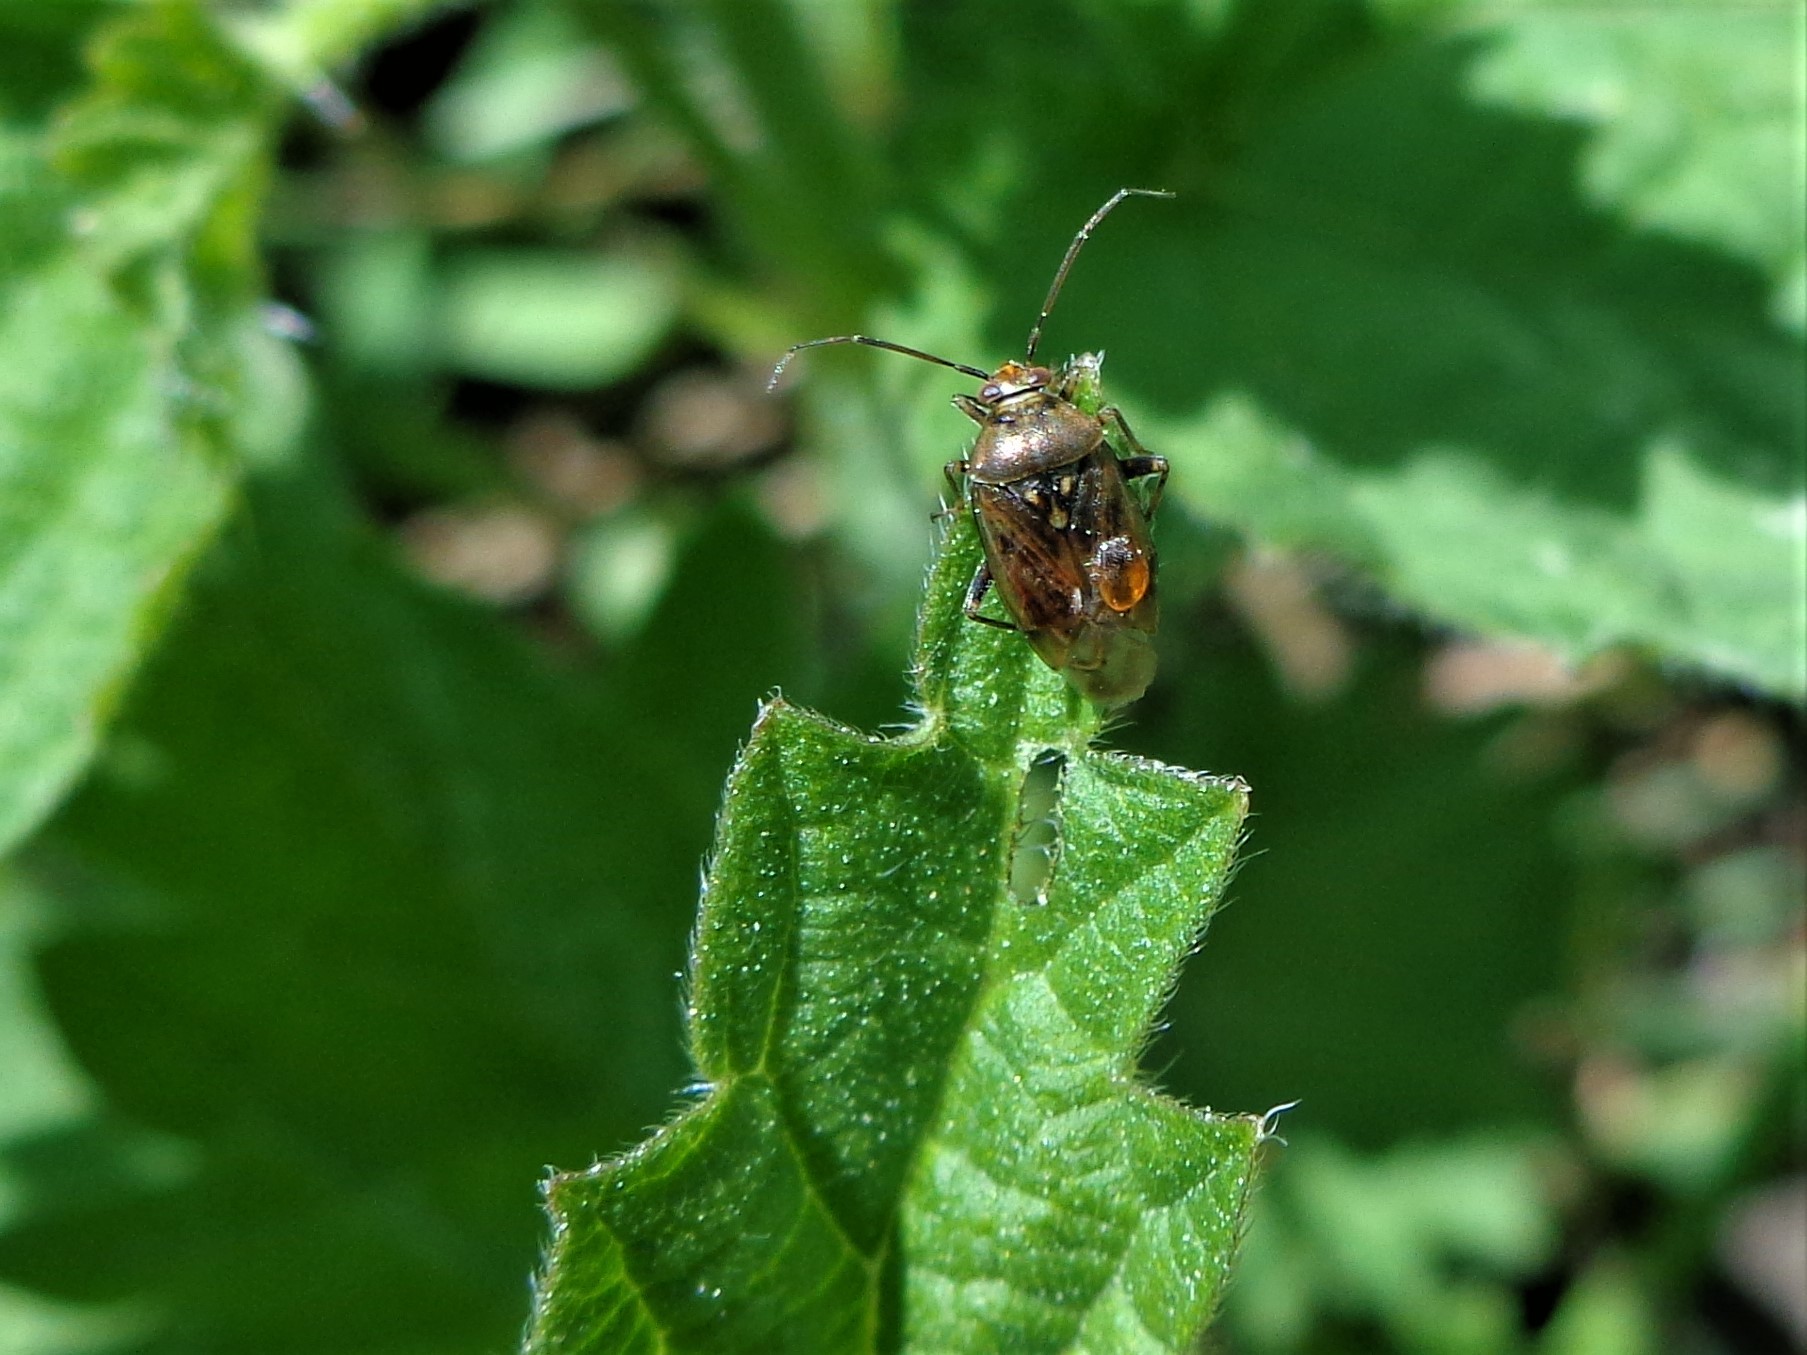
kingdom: Animalia
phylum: Arthropoda
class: Insecta
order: Hemiptera
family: Miridae
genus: Lygus
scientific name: Lygus wagneri
